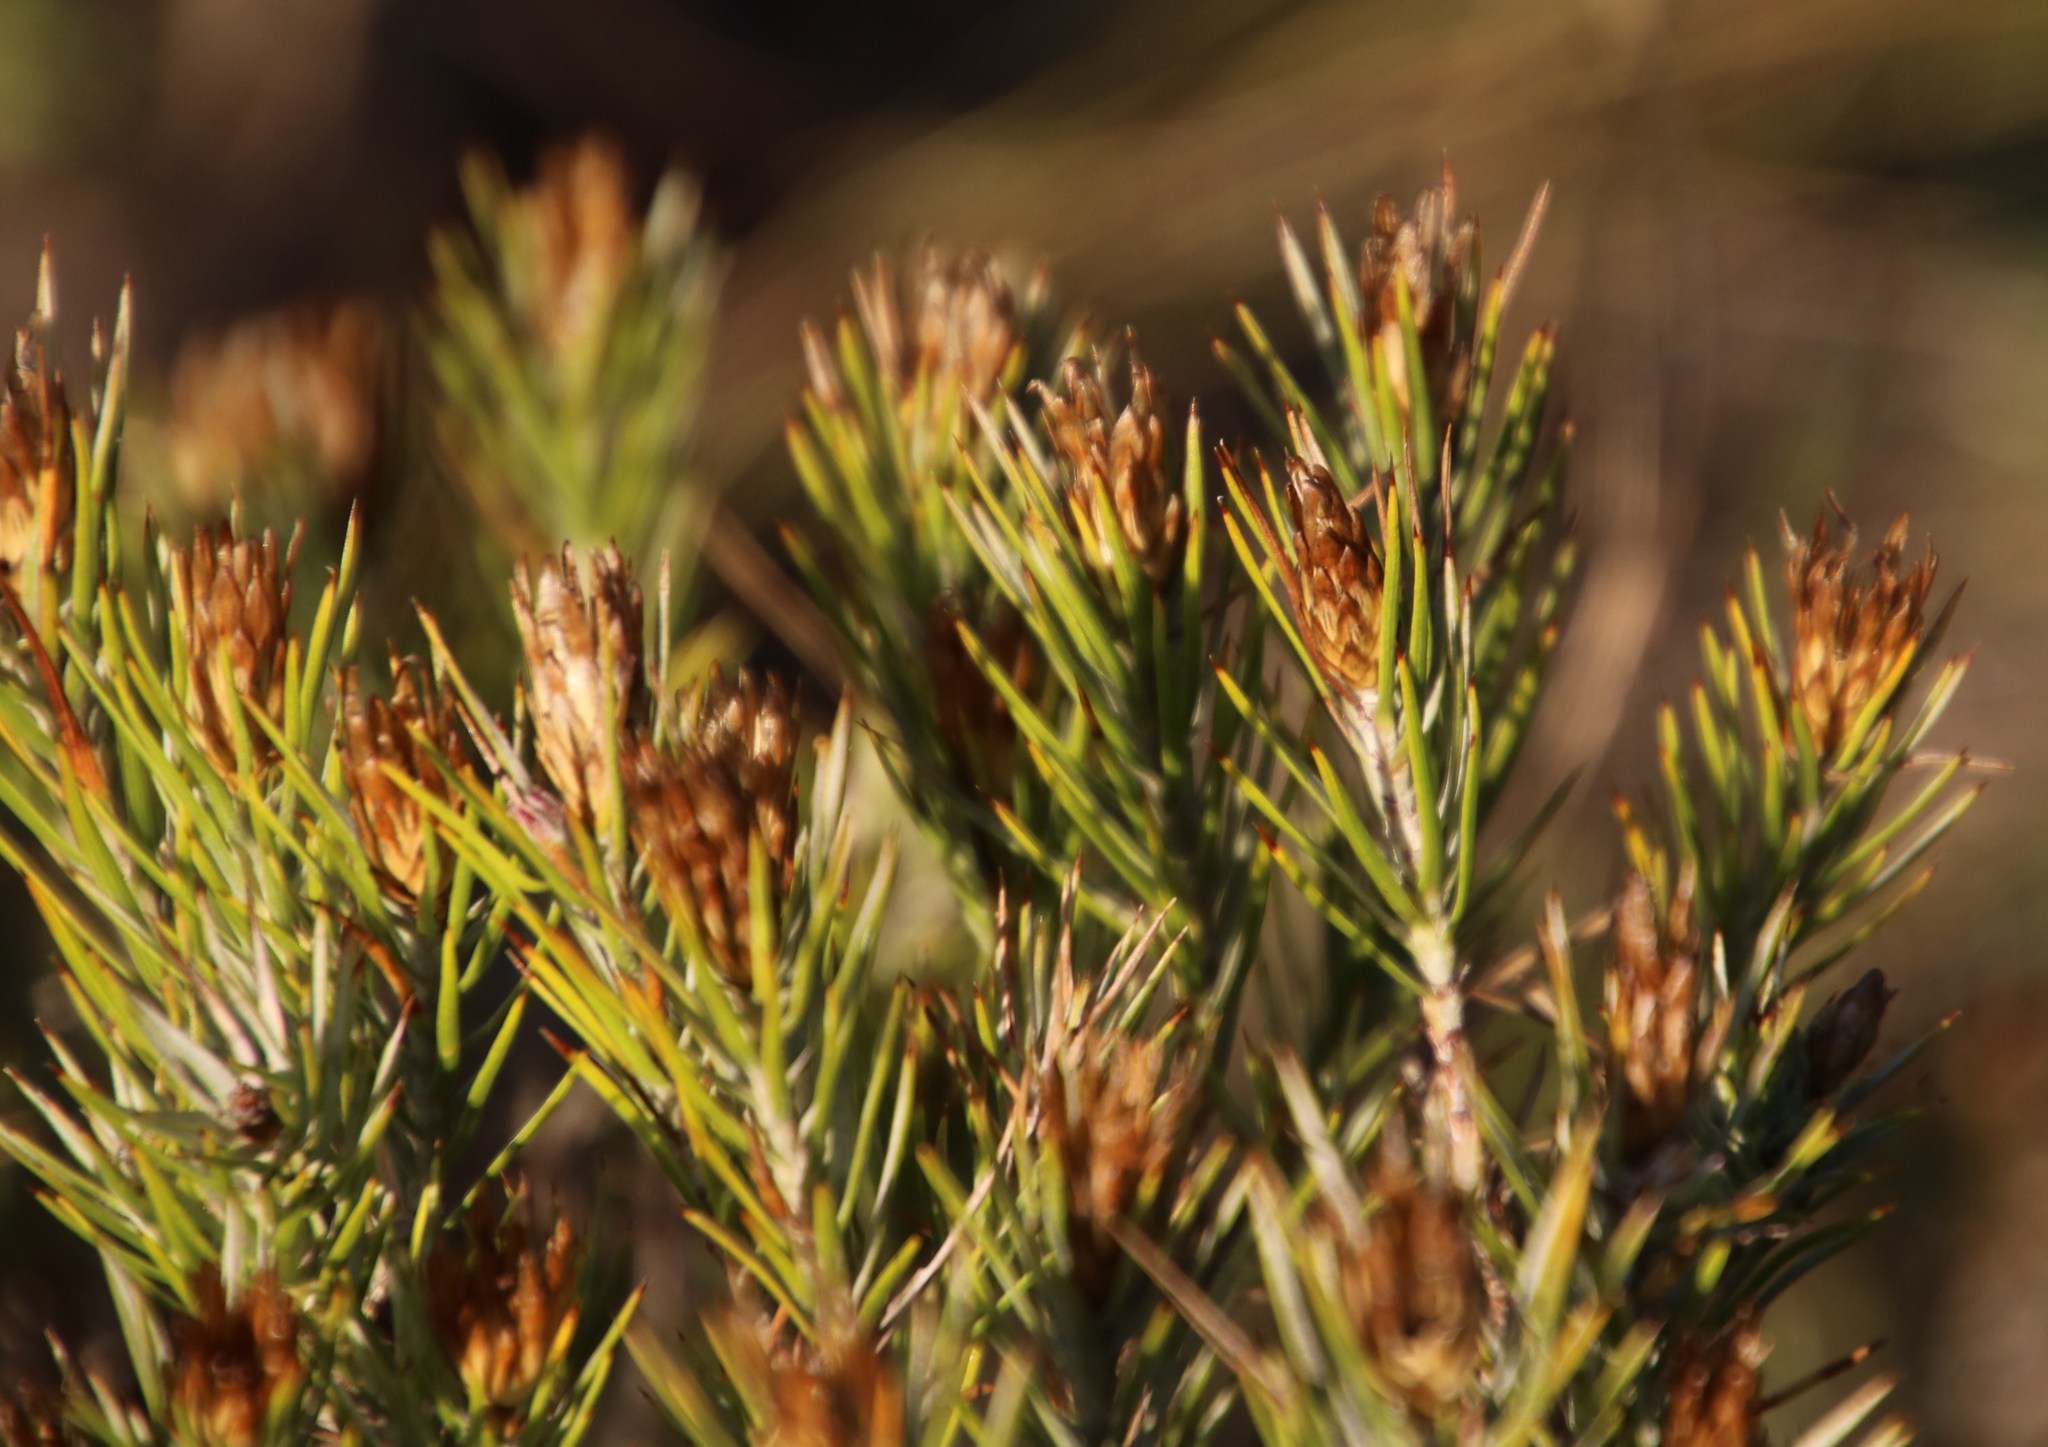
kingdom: Plantae
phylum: Tracheophyta
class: Magnoliopsida
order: Asterales
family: Asteraceae
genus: Oedera
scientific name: Oedera pungens
